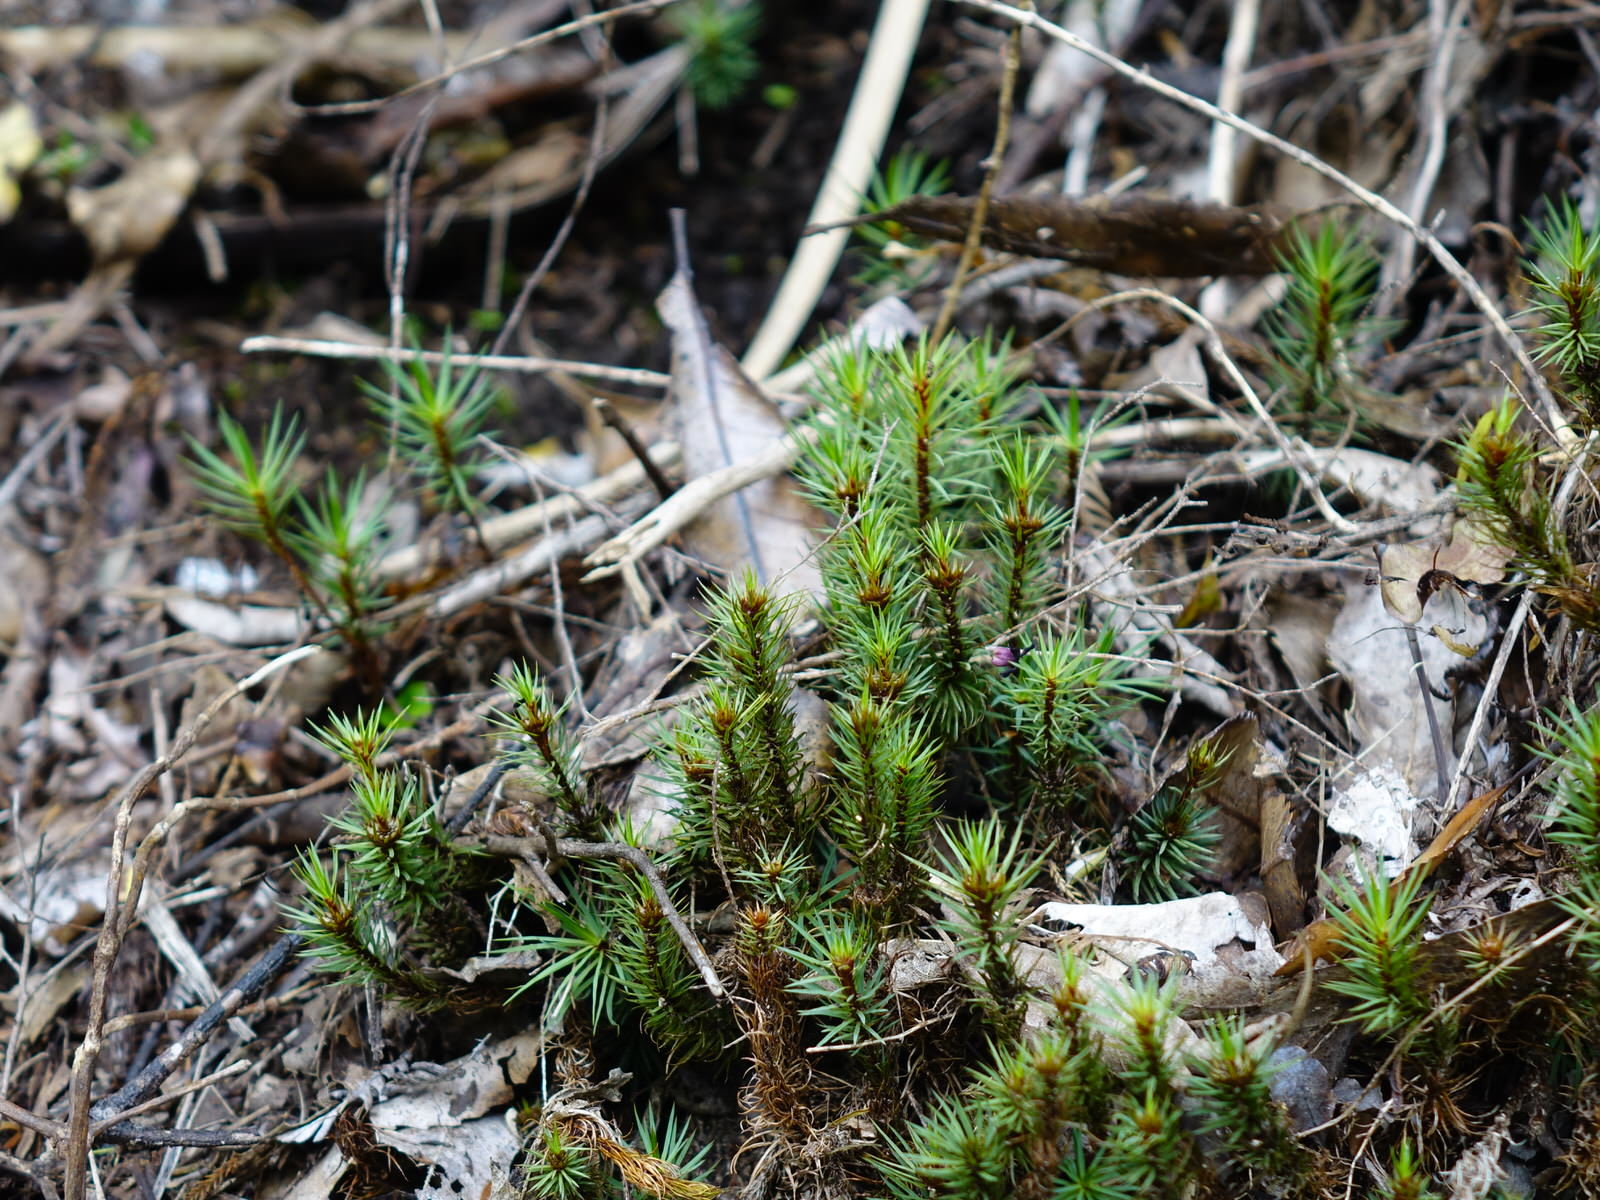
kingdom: Plantae
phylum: Bryophyta
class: Polytrichopsida
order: Polytrichales
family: Polytrichaceae
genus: Dawsonia
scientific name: Dawsonia superba
